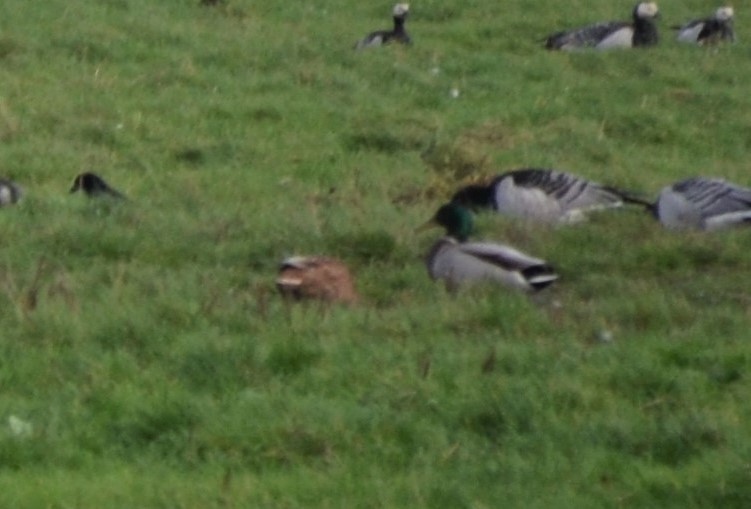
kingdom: Animalia
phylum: Chordata
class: Aves
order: Anseriformes
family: Anatidae
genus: Anas
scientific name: Anas platyrhynchos
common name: Mallard
